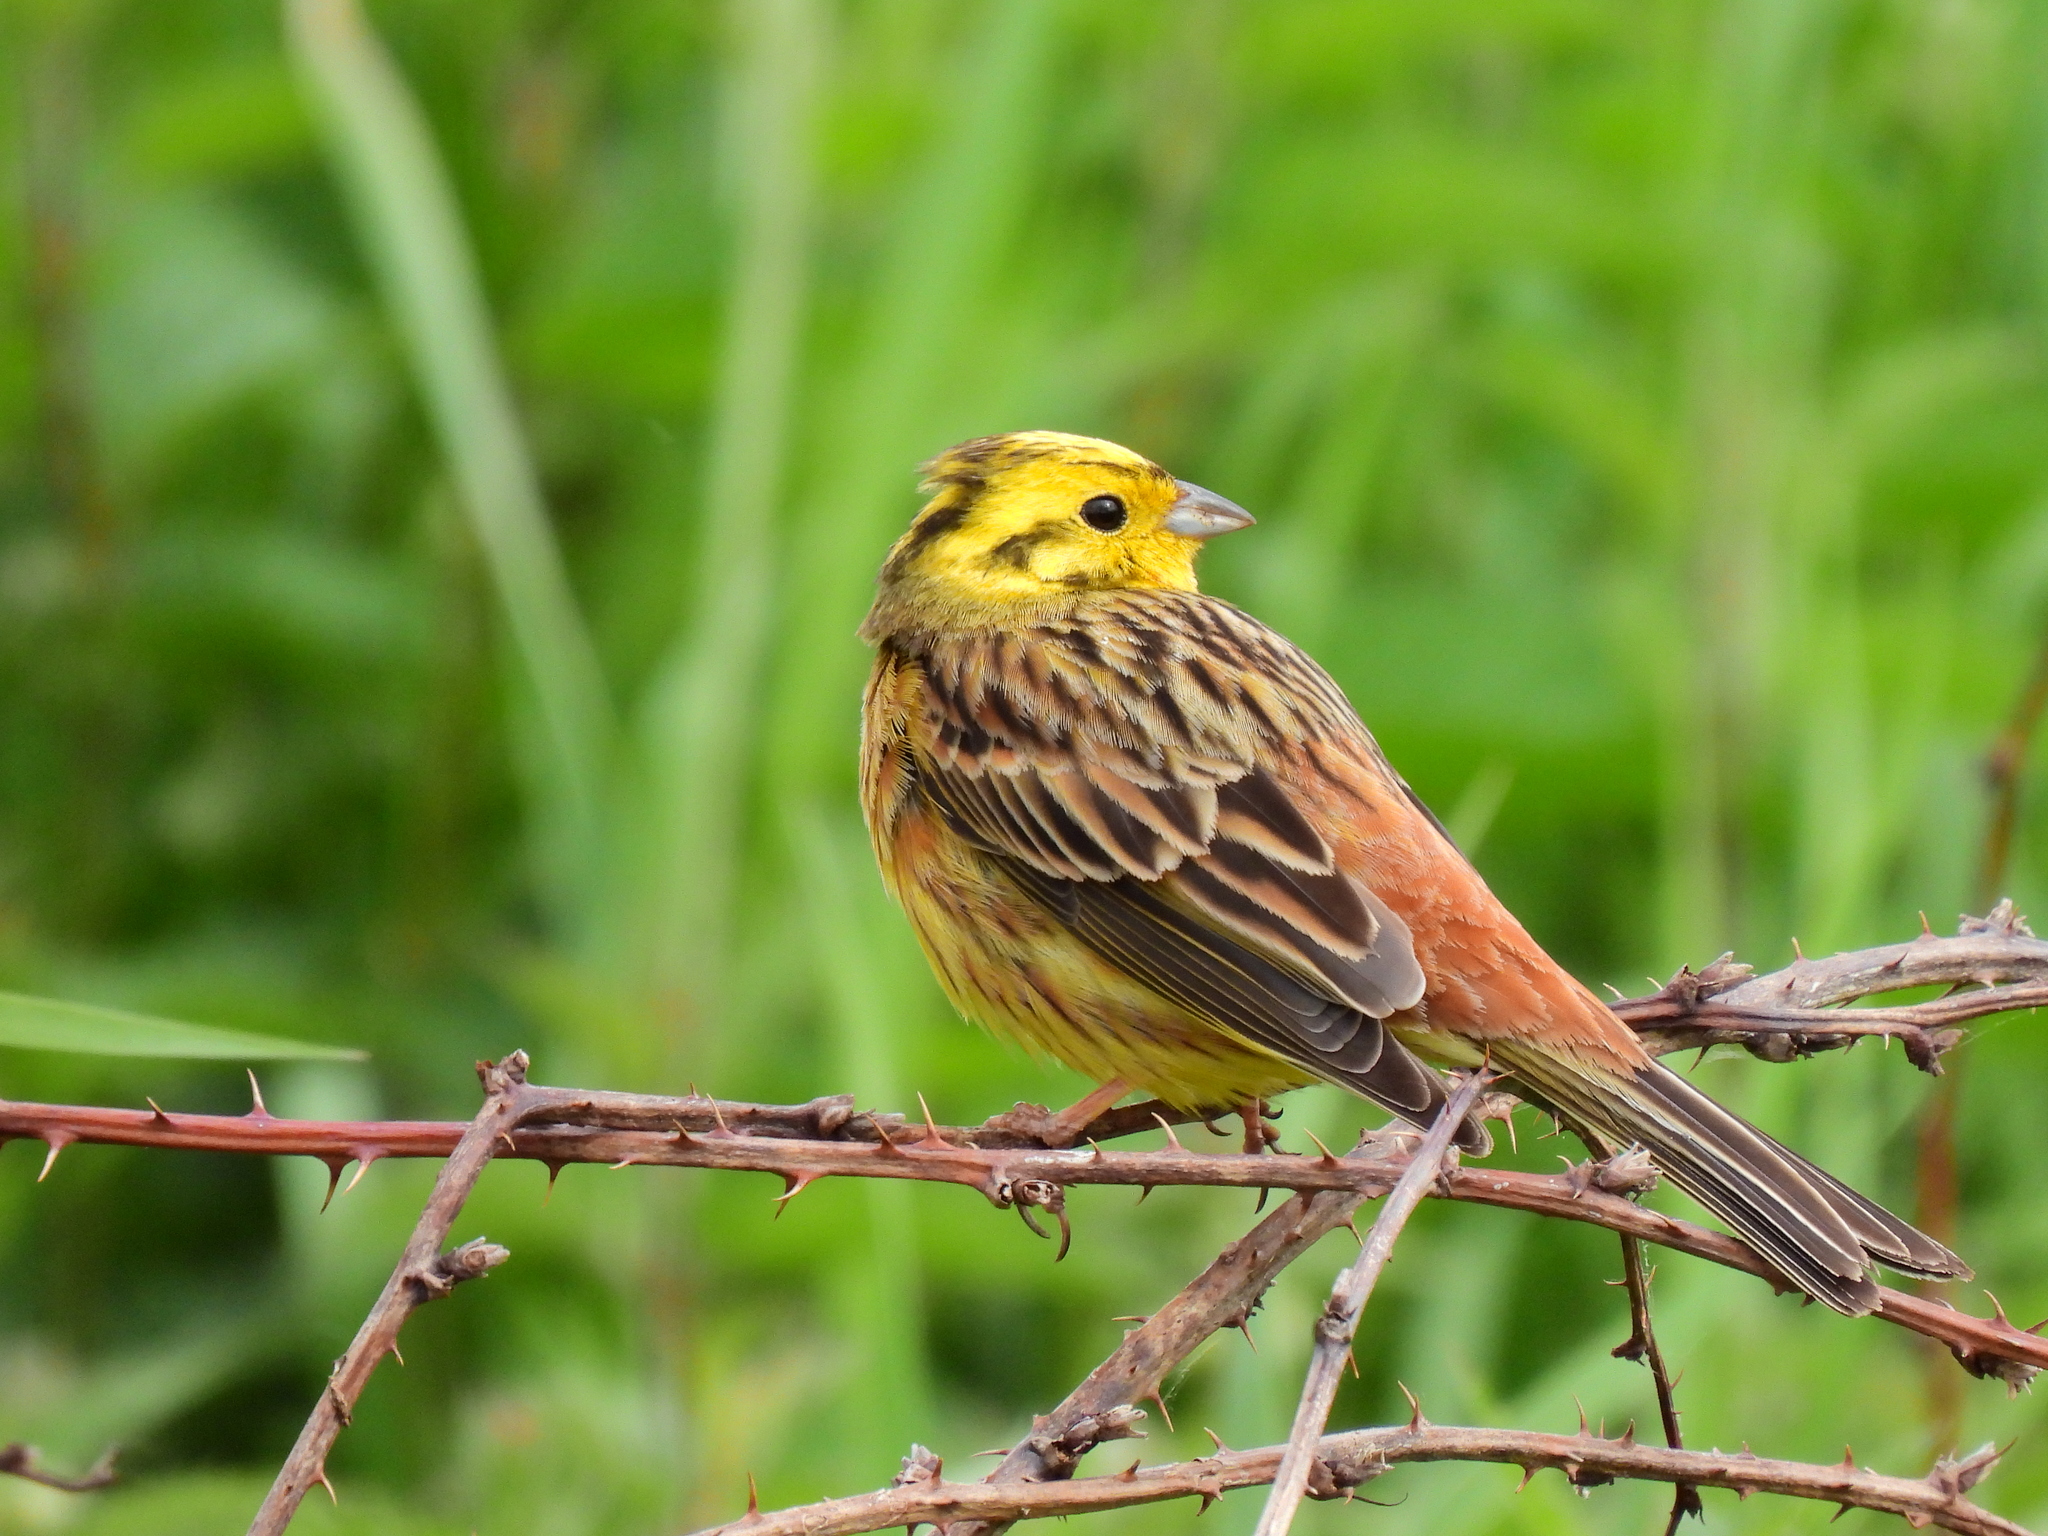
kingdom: Animalia
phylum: Chordata
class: Aves
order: Passeriformes
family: Emberizidae
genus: Emberiza
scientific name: Emberiza citrinella
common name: Yellowhammer
